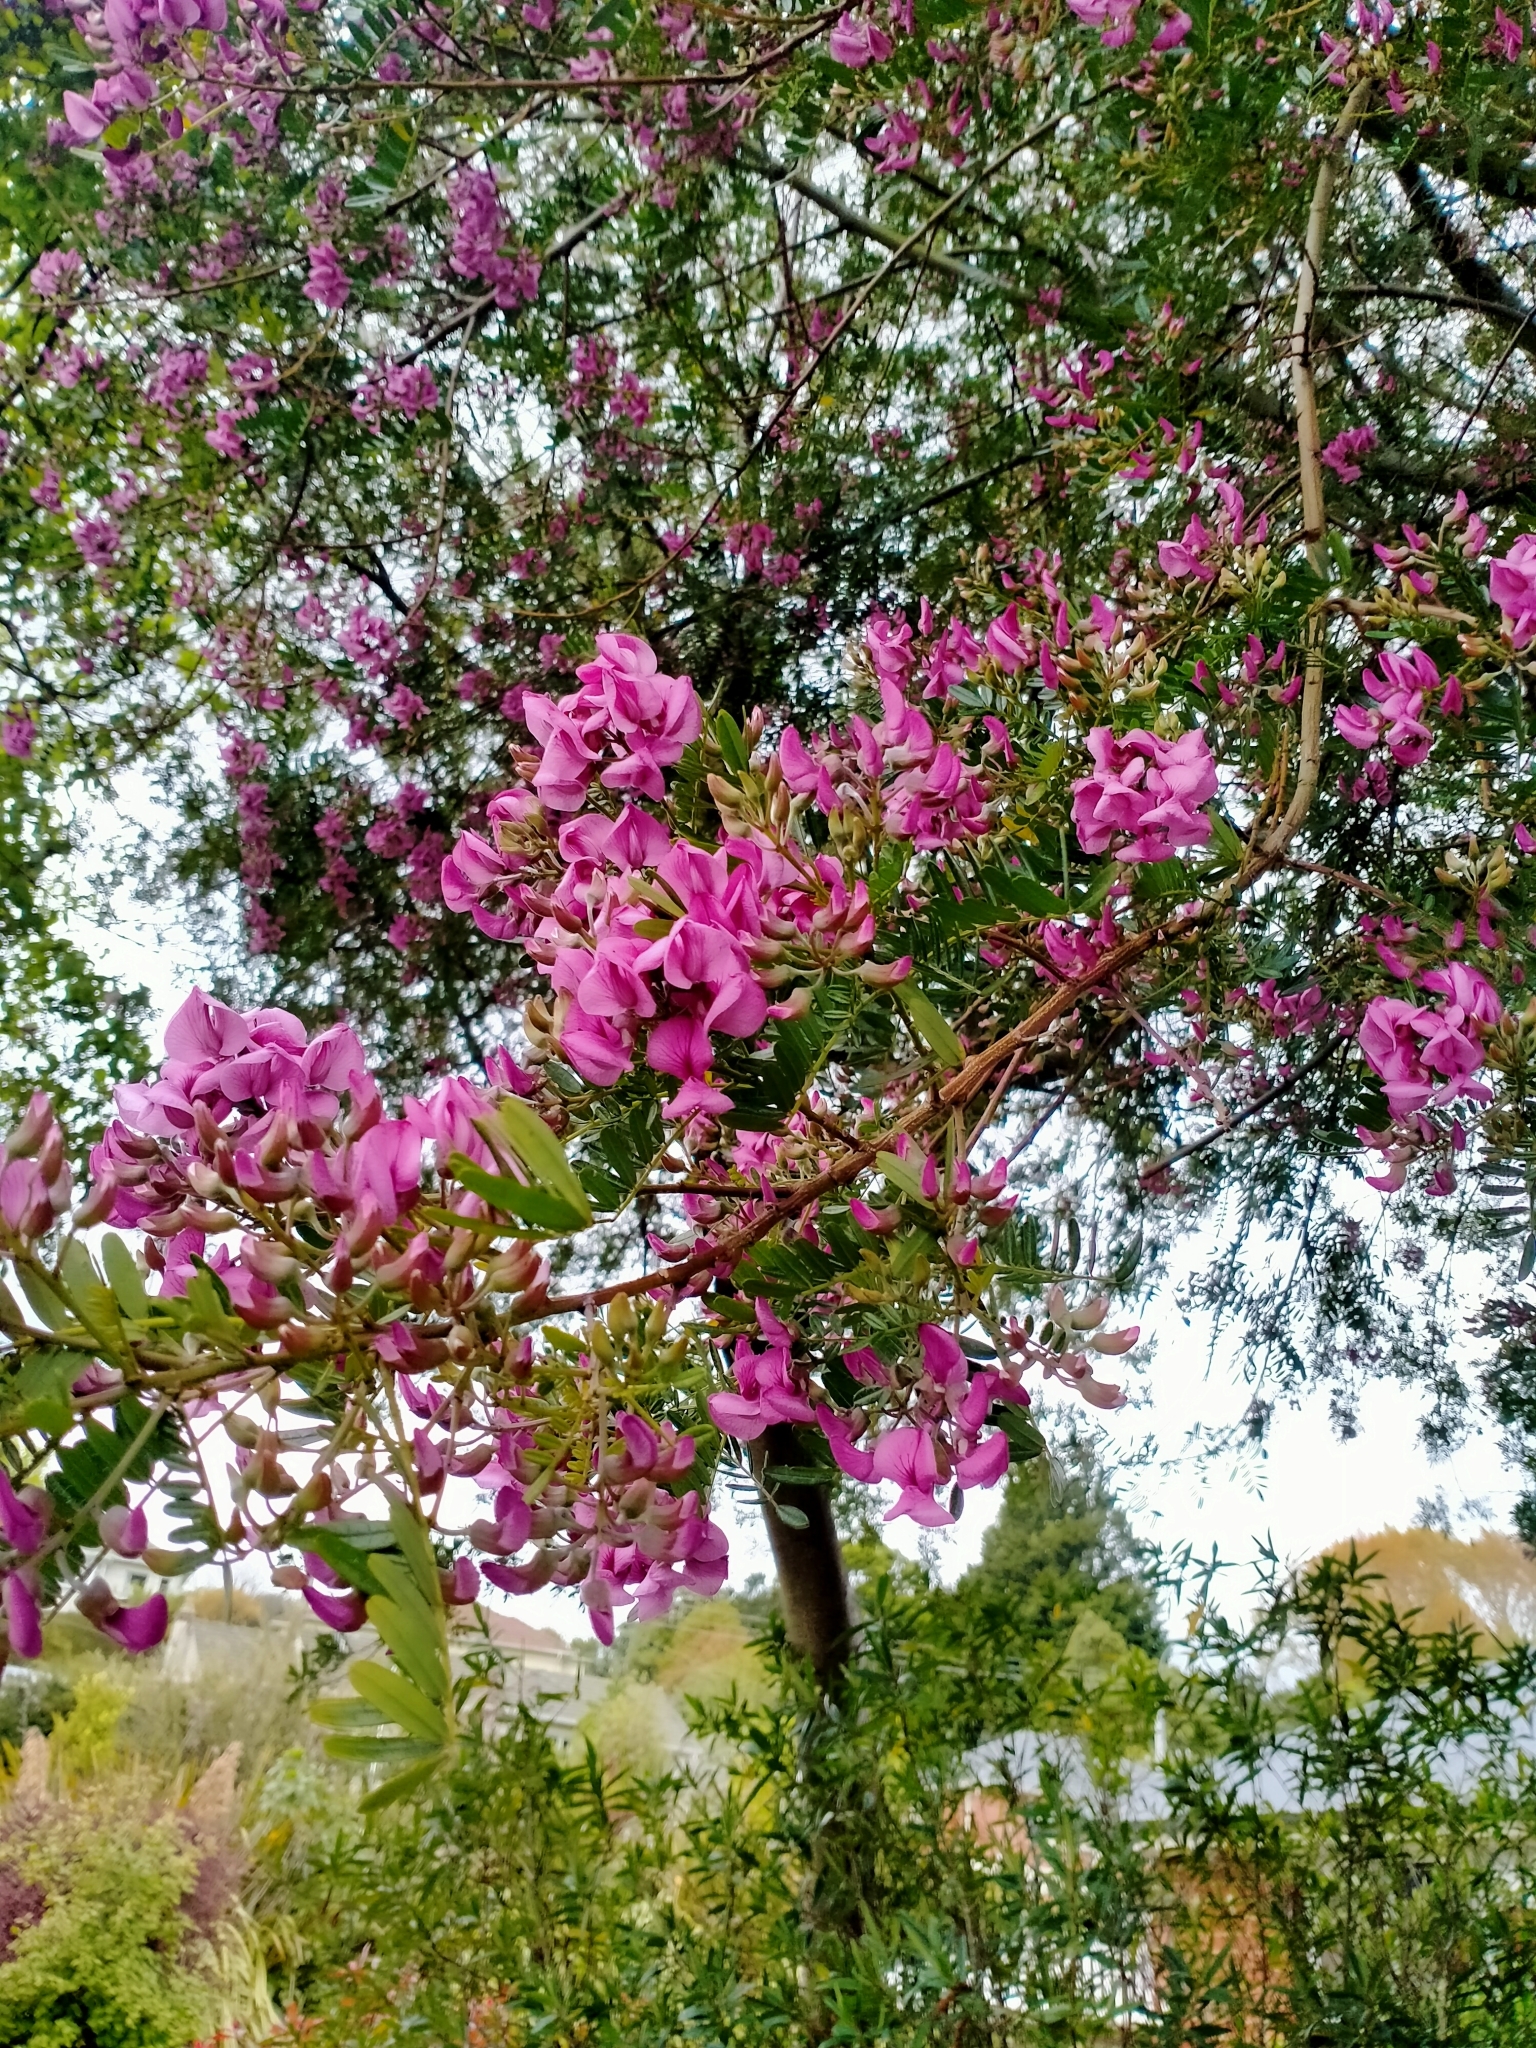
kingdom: Plantae
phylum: Tracheophyta
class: Magnoliopsida
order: Santalales
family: Loranthaceae
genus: Ileostylus
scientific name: Ileostylus micranthus
